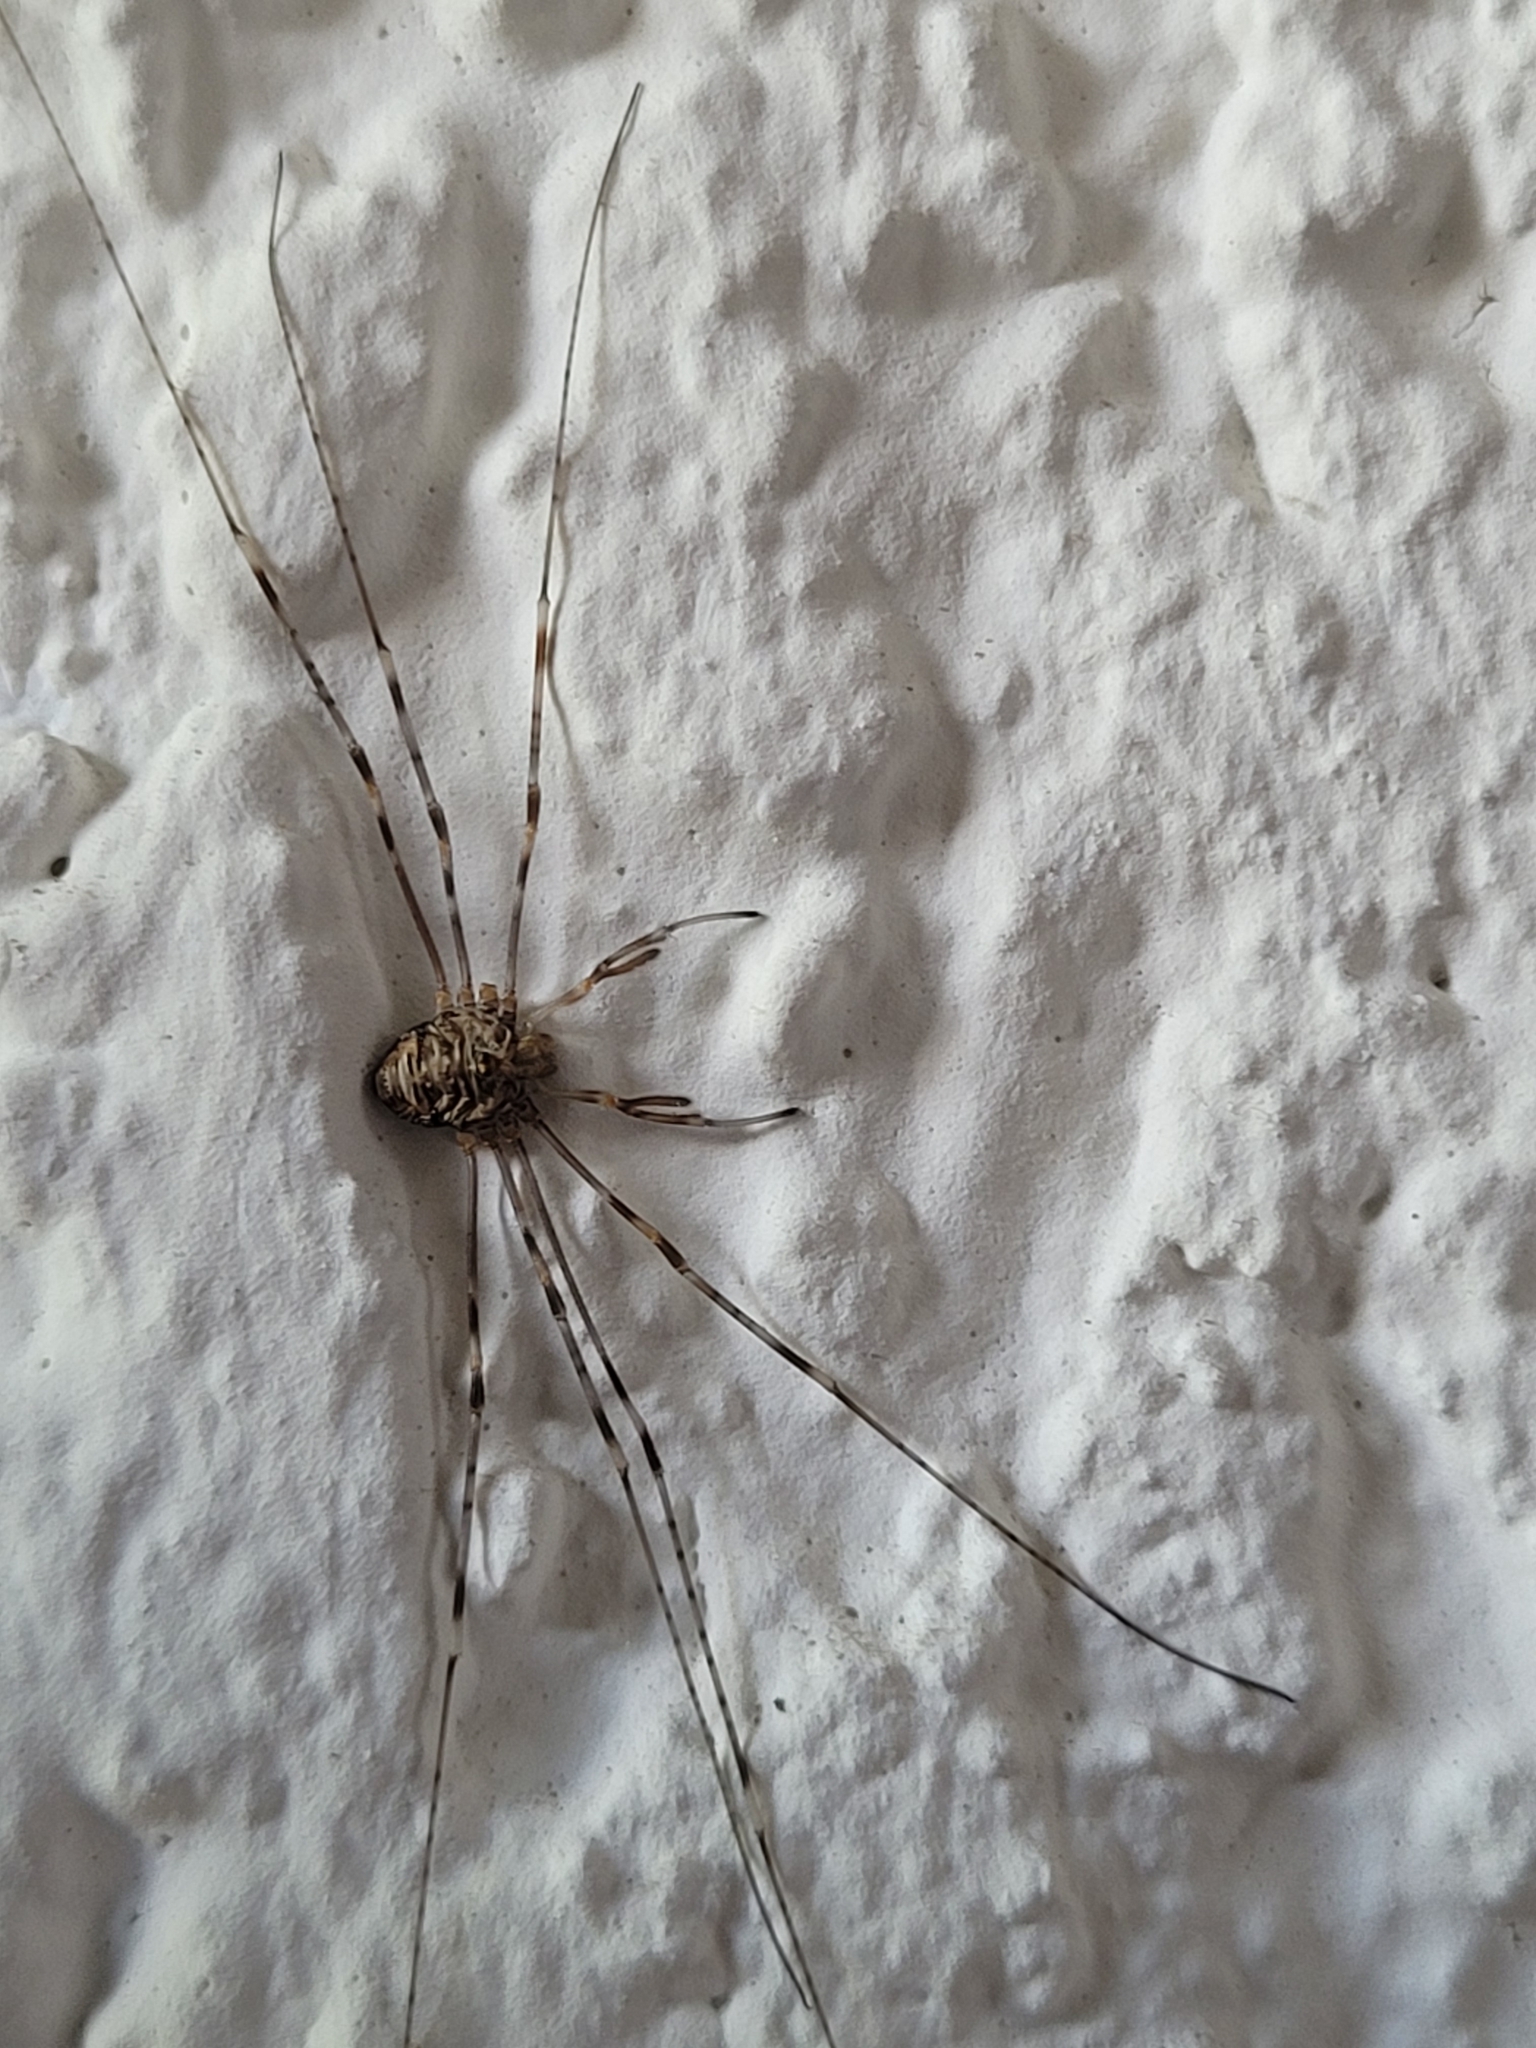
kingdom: Animalia
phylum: Arthropoda
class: Arachnida
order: Opiliones
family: Phalangiidae
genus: Dicranopalpus
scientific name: Dicranopalpus ramosus
